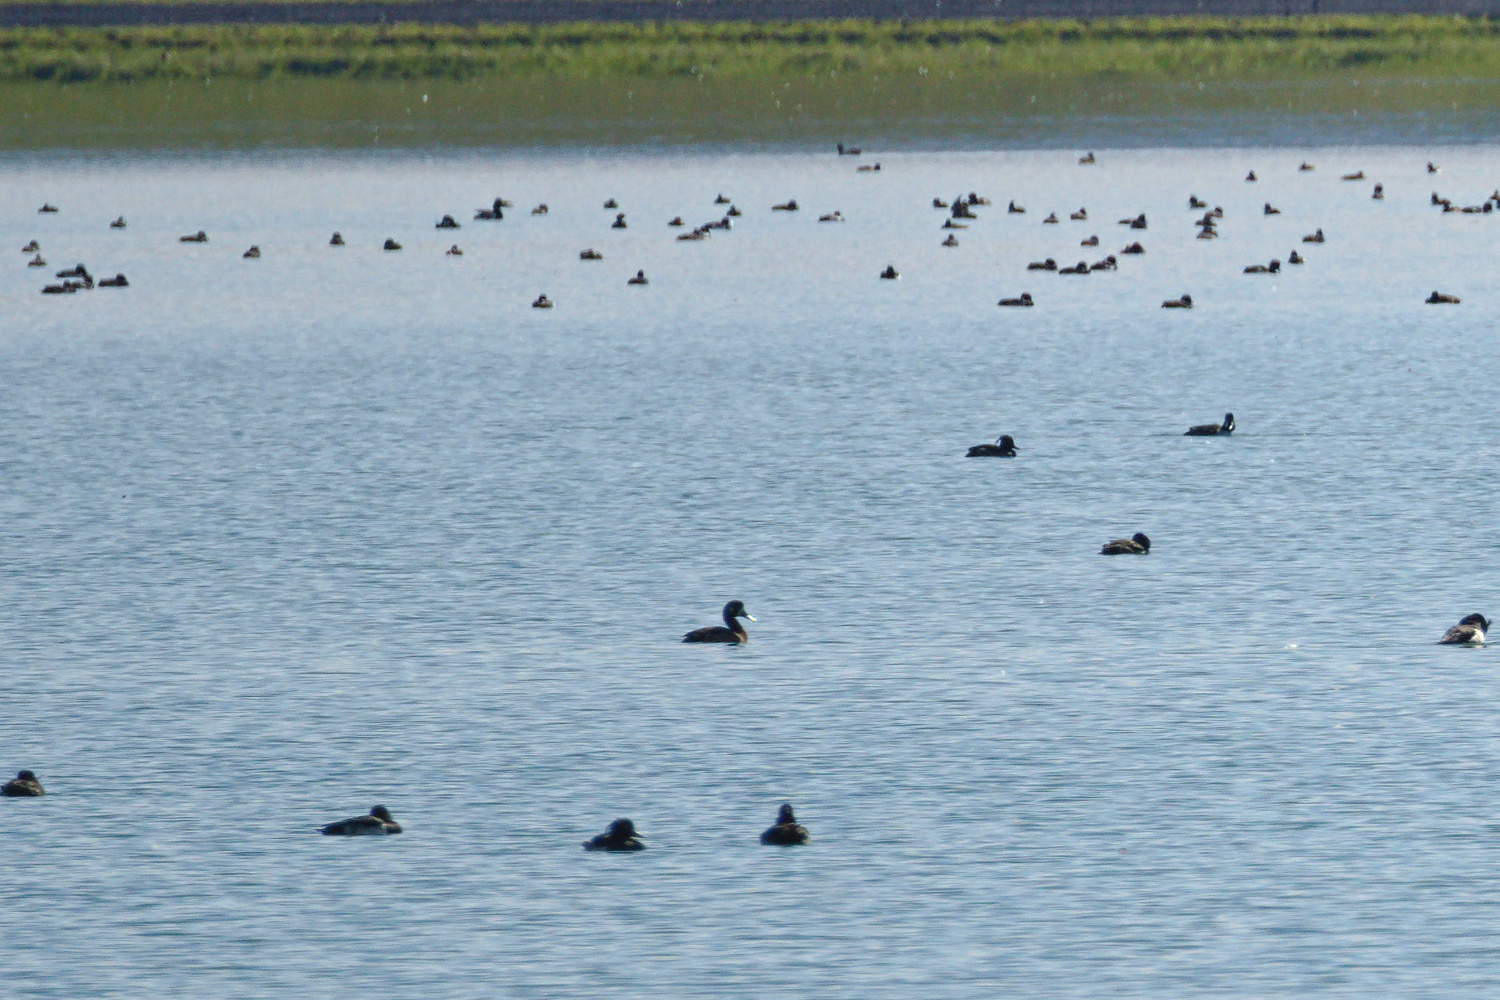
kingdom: Animalia
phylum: Chordata
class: Aves
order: Anseriformes
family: Anatidae
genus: Aythya
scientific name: Aythya fuligula
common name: Tufted duck
